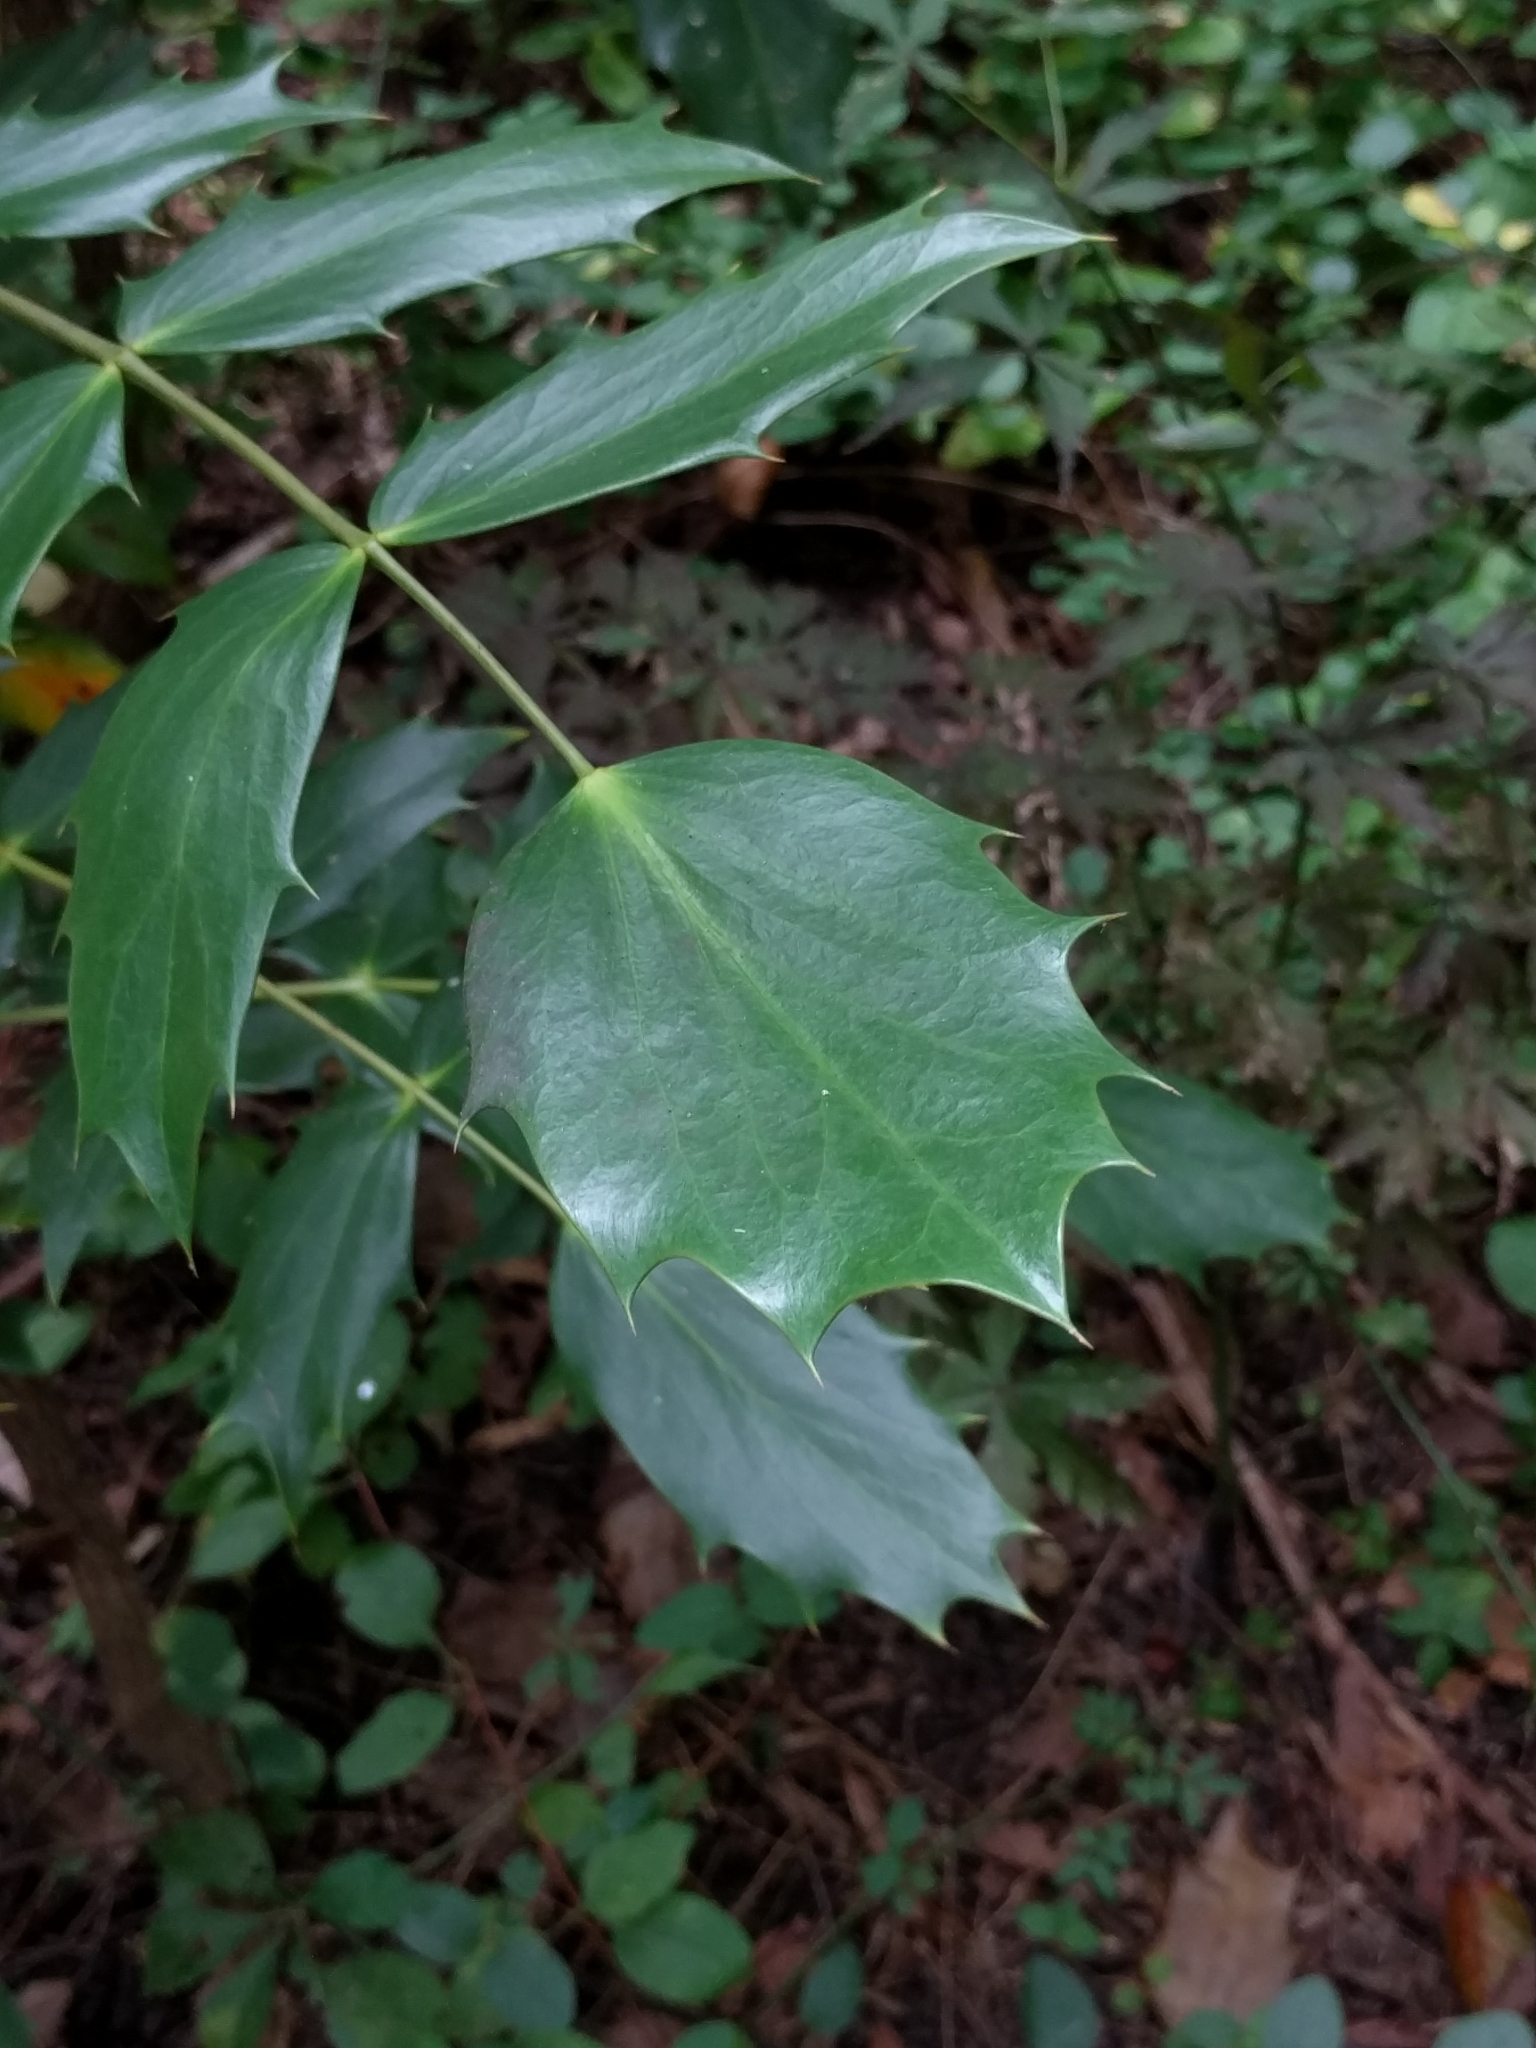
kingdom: Plantae
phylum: Tracheophyta
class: Magnoliopsida
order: Ranunculales
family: Berberidaceae
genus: Mahonia
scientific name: Mahonia bealei
